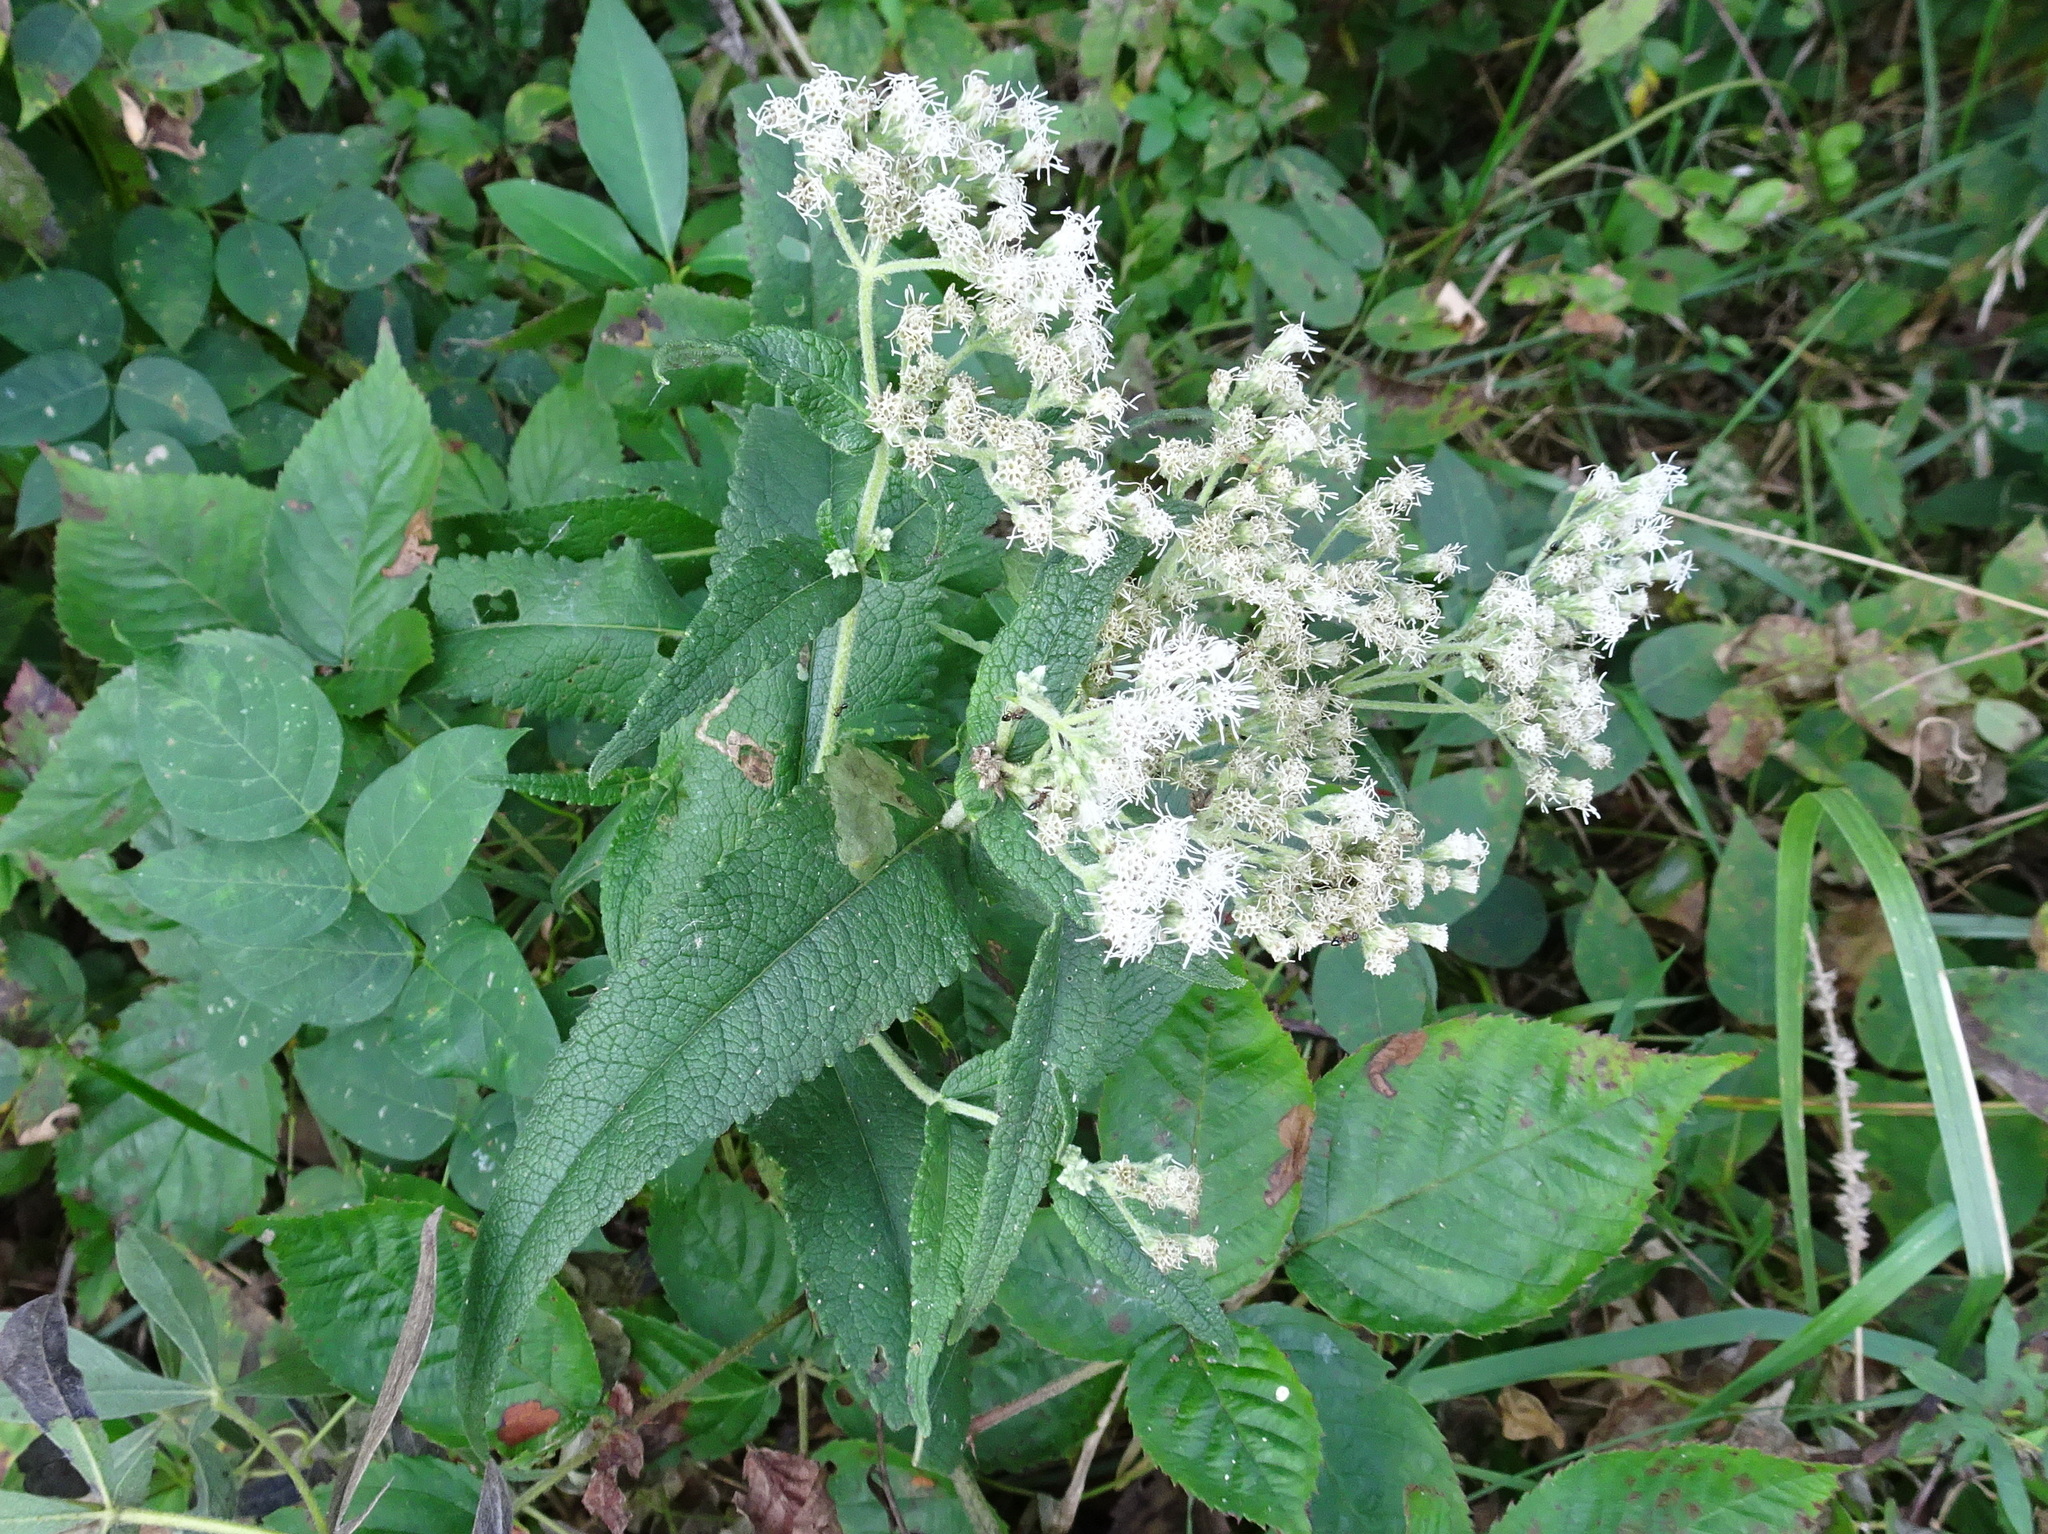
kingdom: Plantae
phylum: Tracheophyta
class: Magnoliopsida
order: Asterales
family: Asteraceae
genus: Eupatorium
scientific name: Eupatorium perfoliatum
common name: Boneset
